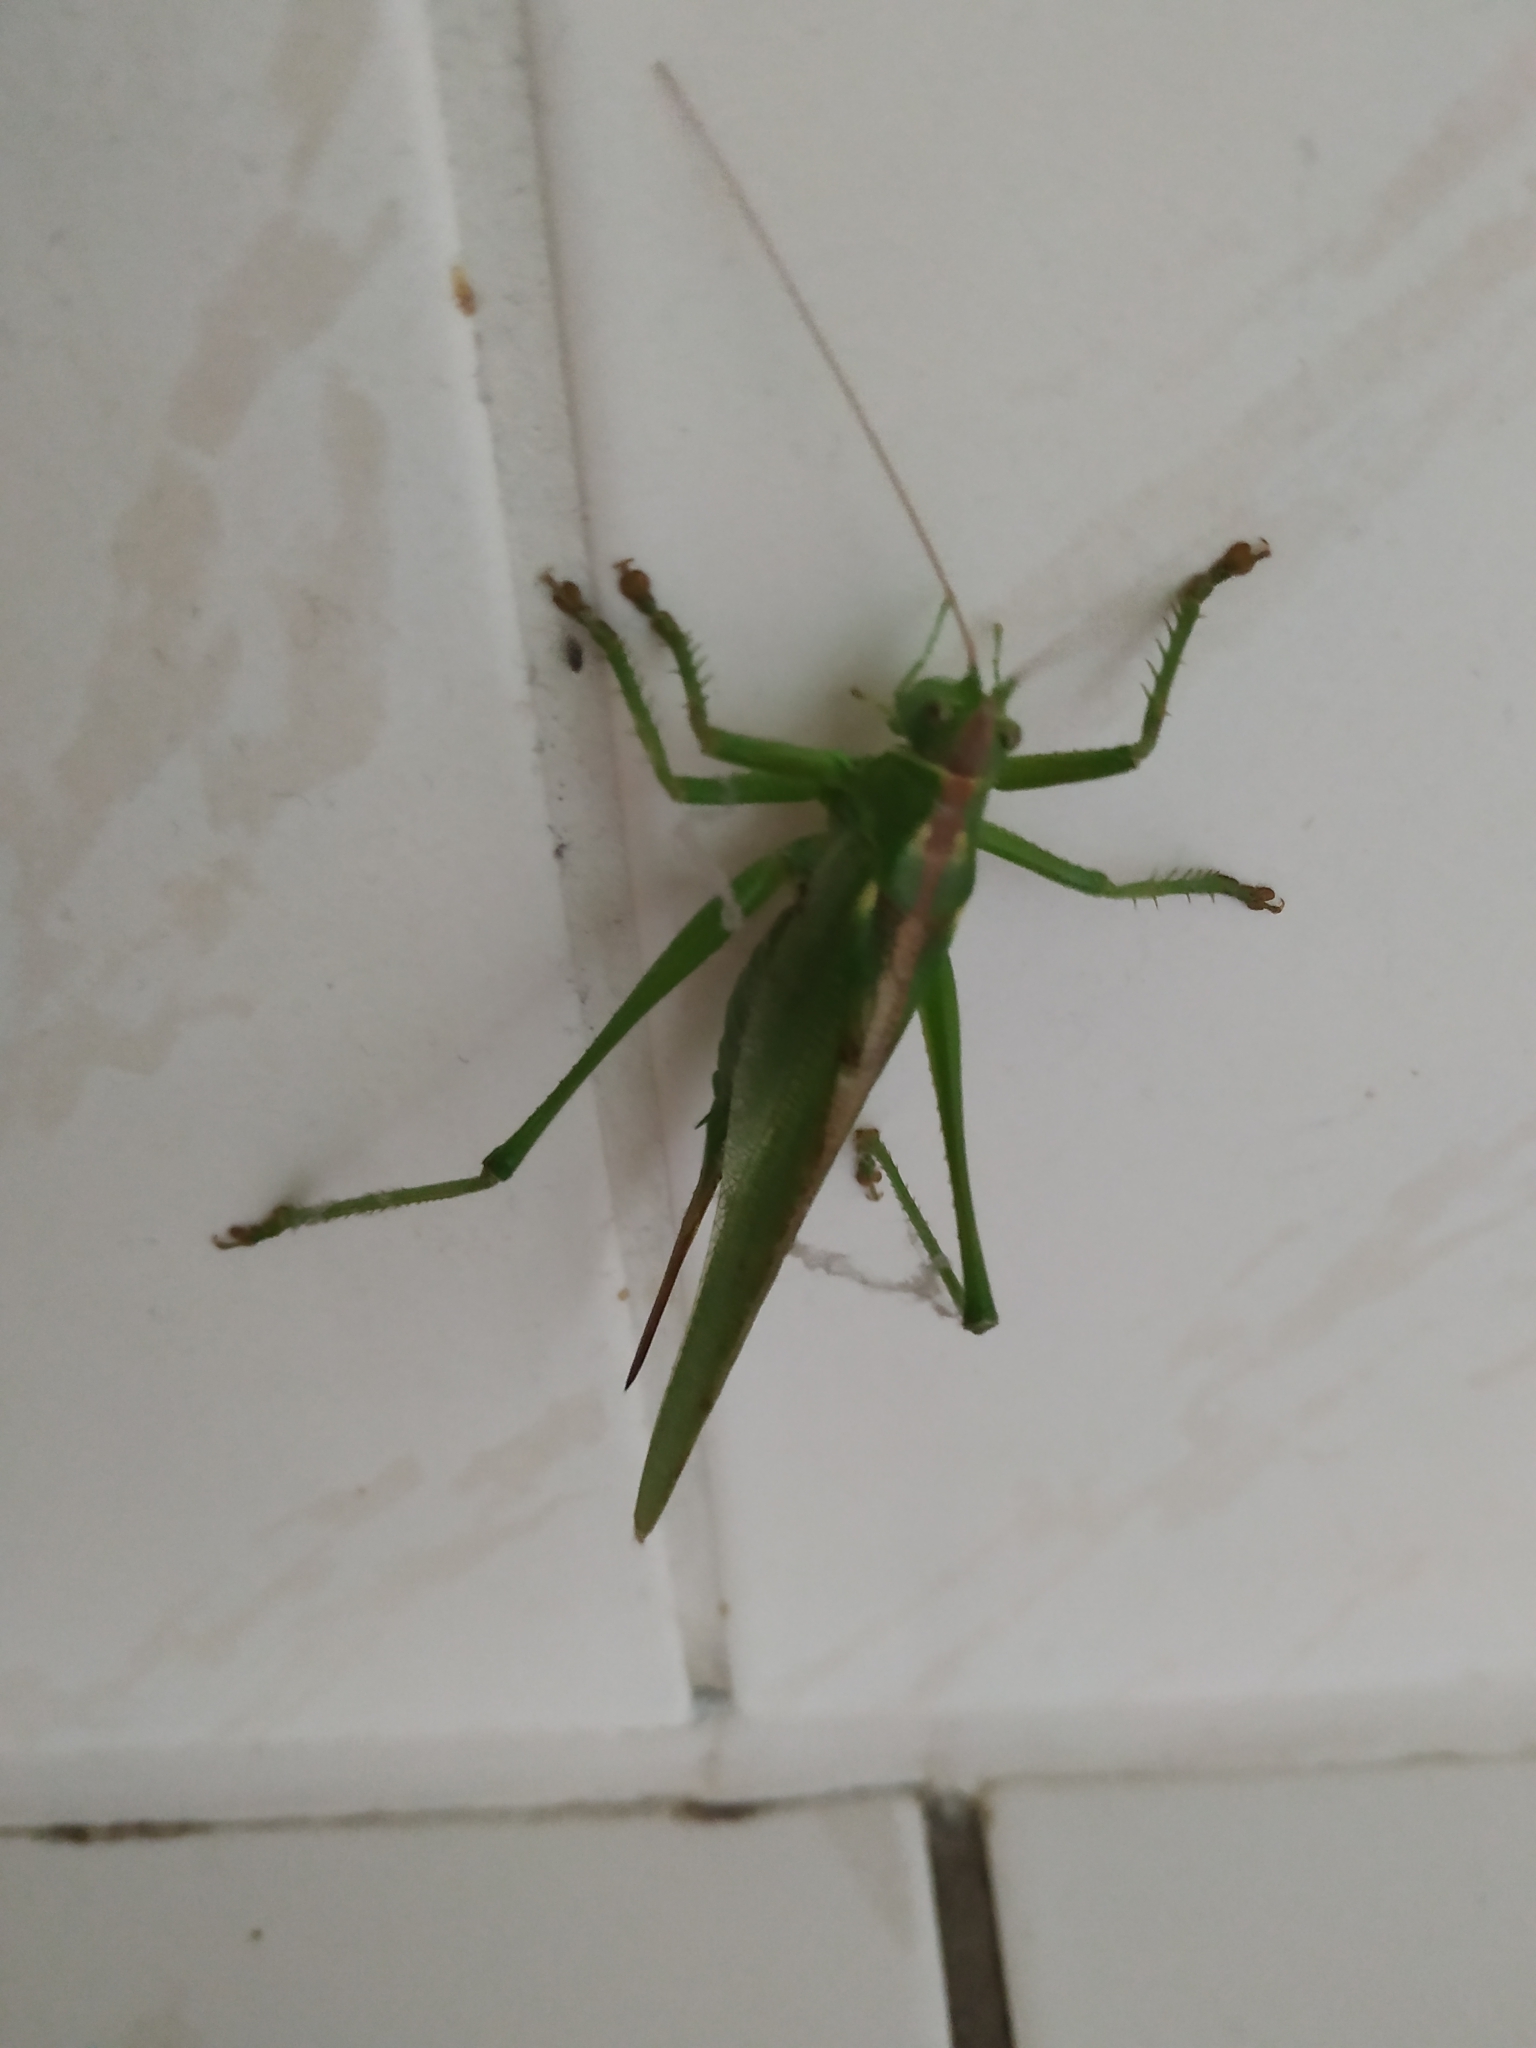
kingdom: Animalia
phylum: Arthropoda
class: Insecta
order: Orthoptera
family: Tettigoniidae
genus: Tettigonia
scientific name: Tettigonia viridissima
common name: Great green bush-cricket
